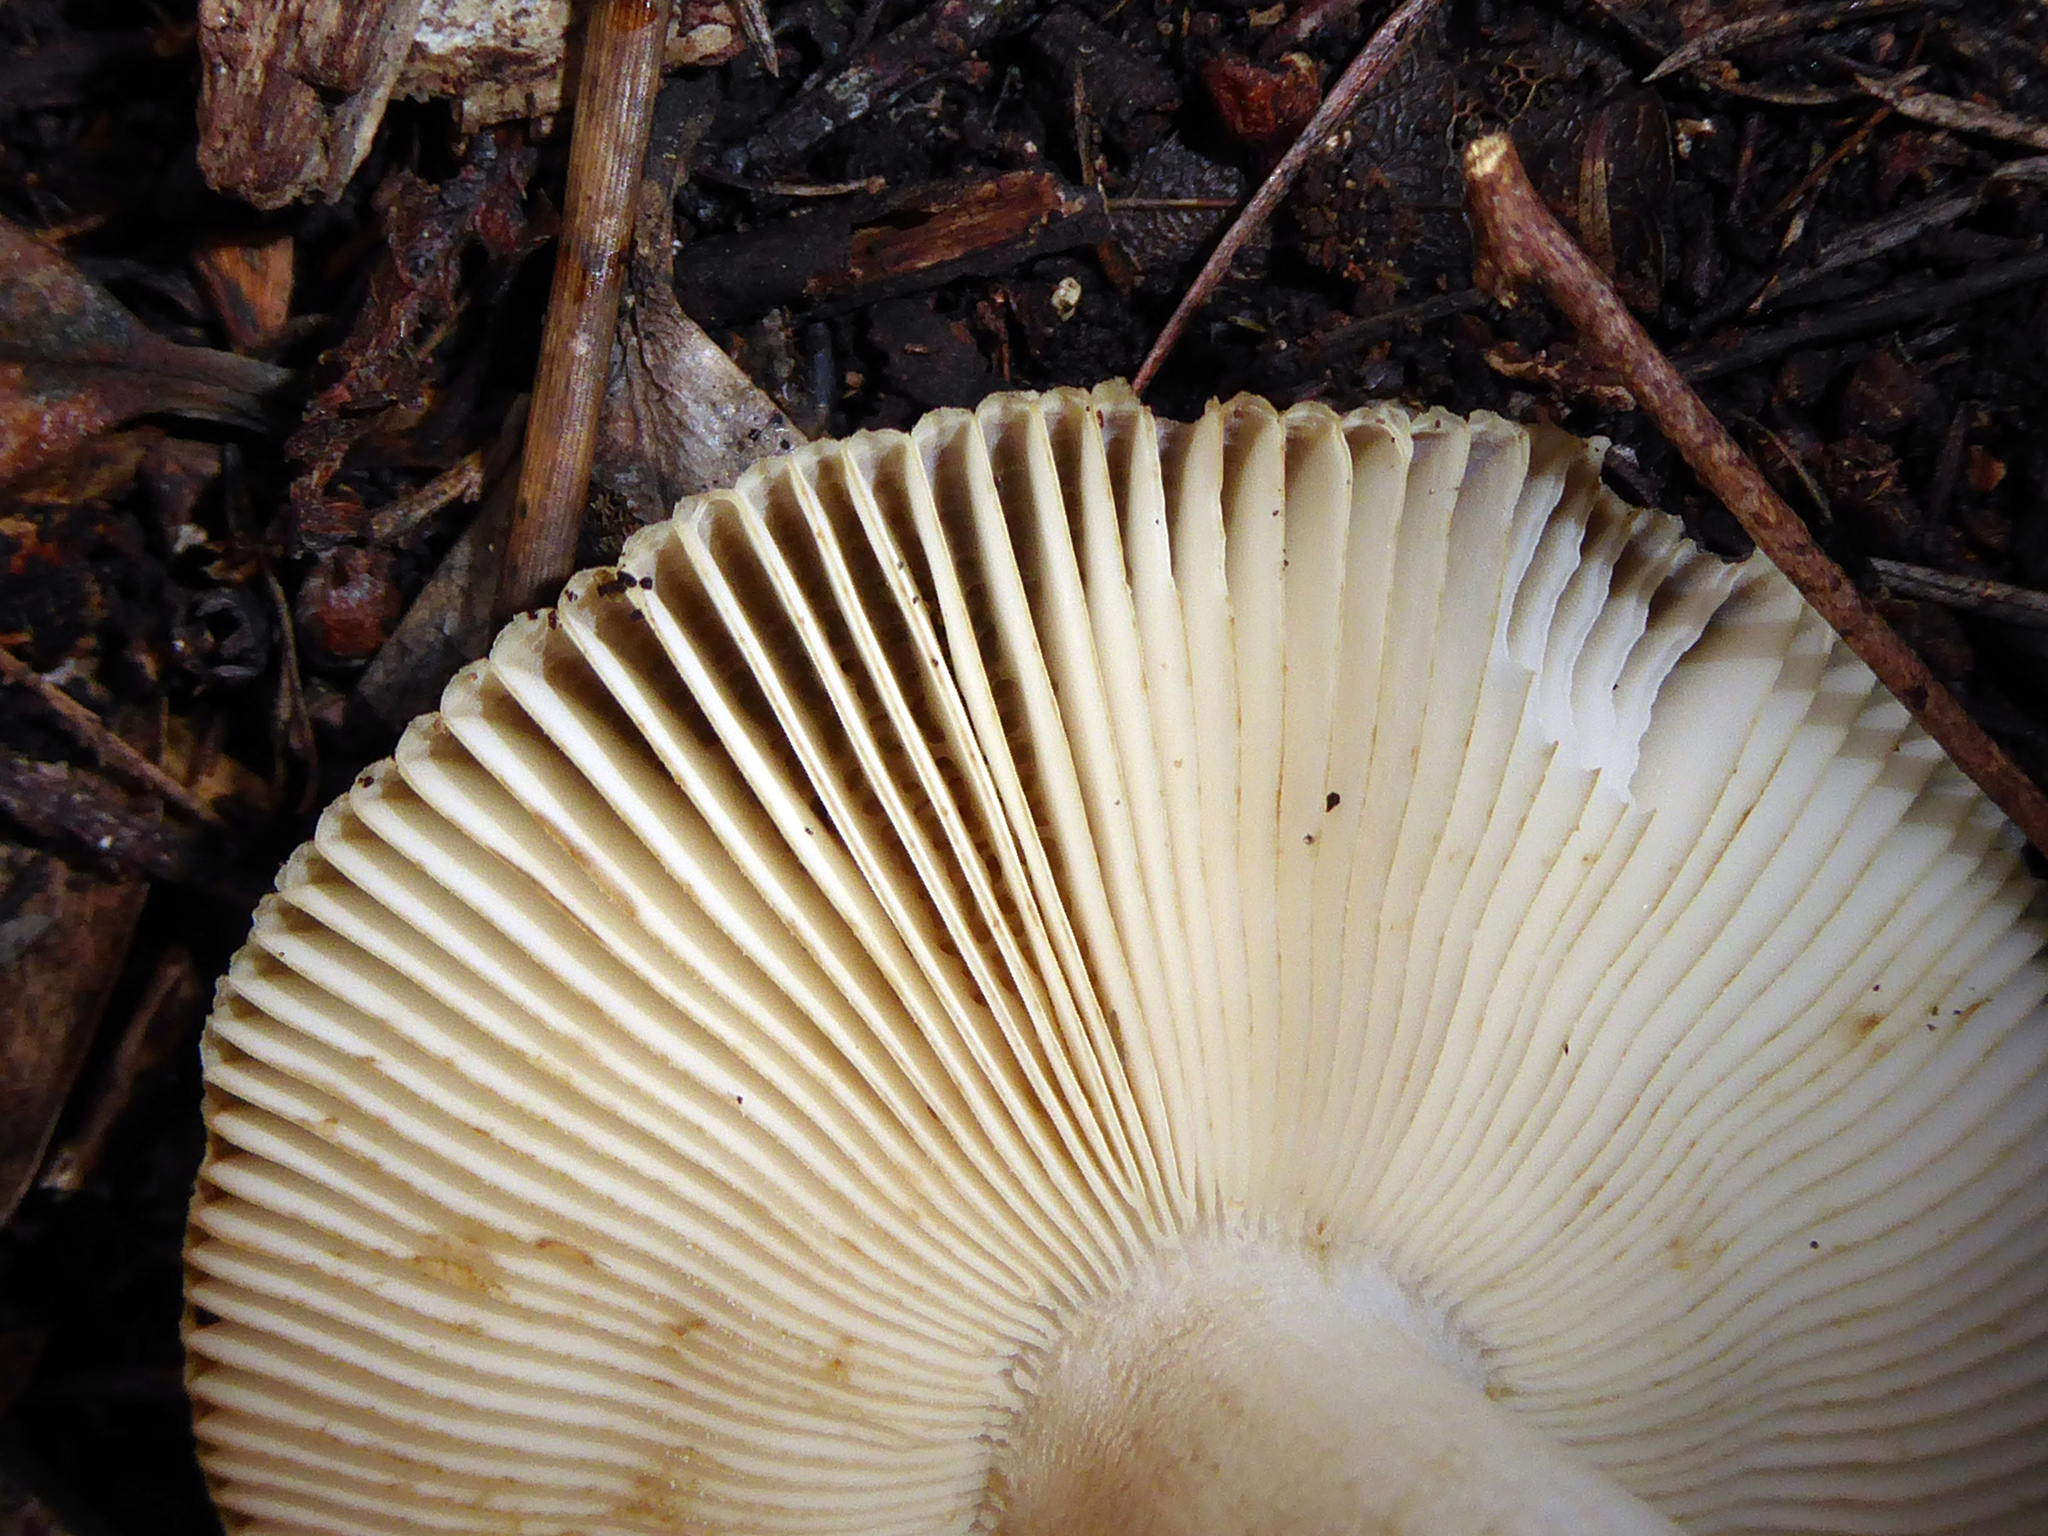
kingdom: Fungi
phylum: Basidiomycota
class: Agaricomycetes
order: Russulales
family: Russulaceae
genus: Russula
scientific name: Russula acrolamellata
